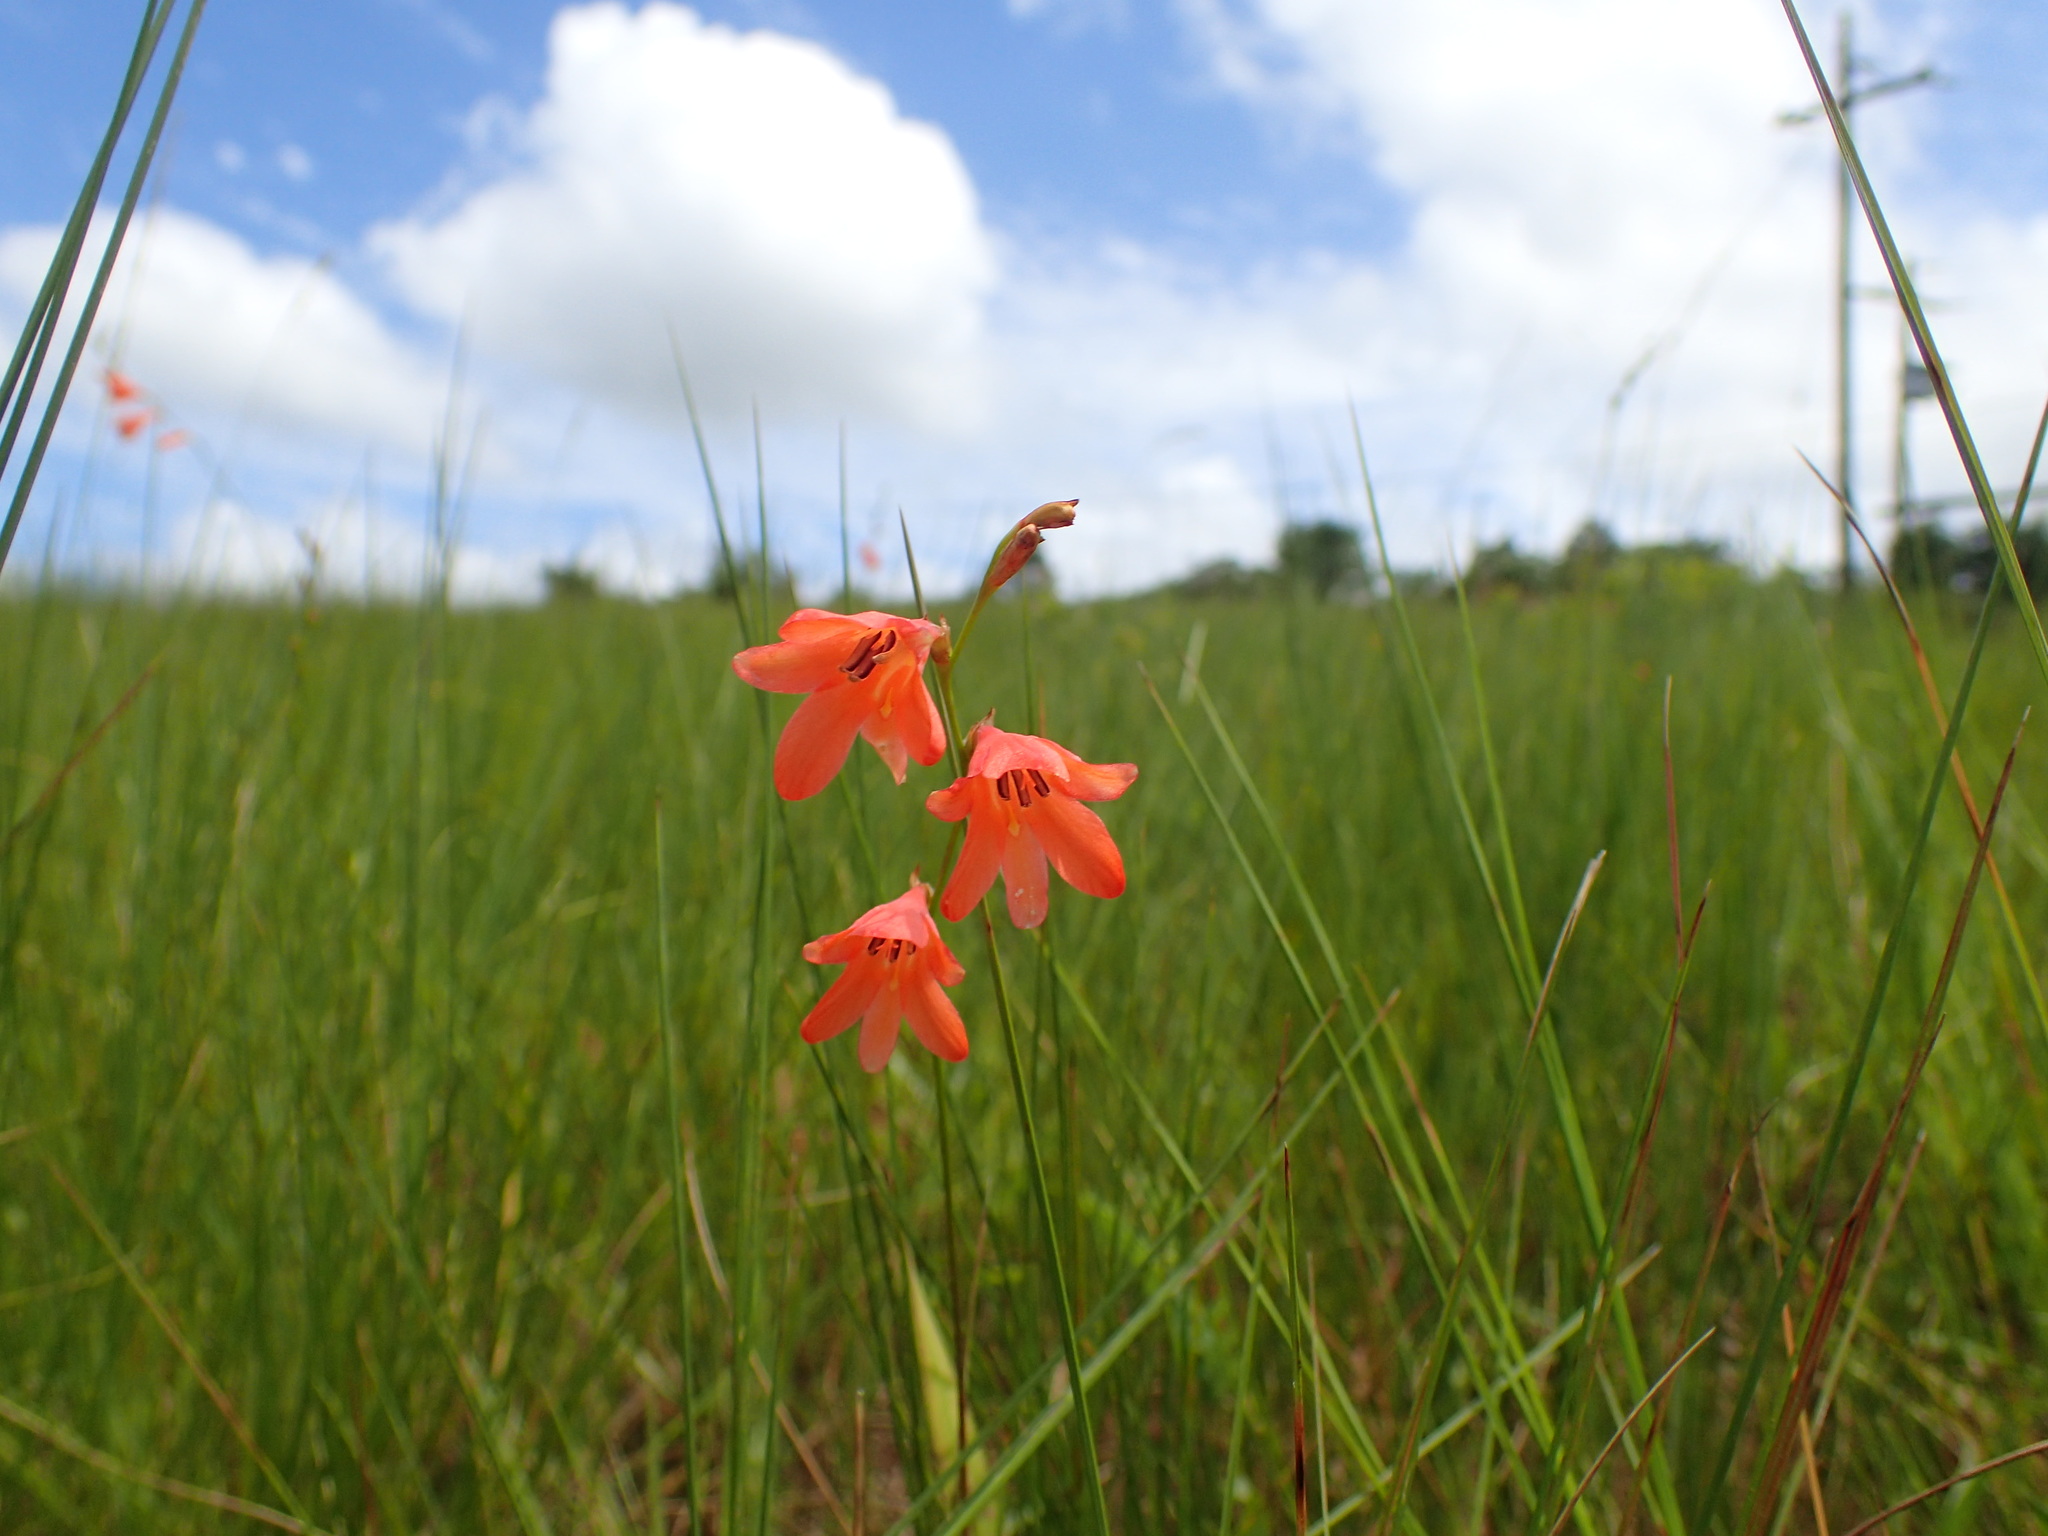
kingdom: Plantae
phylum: Tracheophyta
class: Liliopsida
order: Asparagales
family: Iridaceae
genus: Tritonia
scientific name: Tritonia disticha
